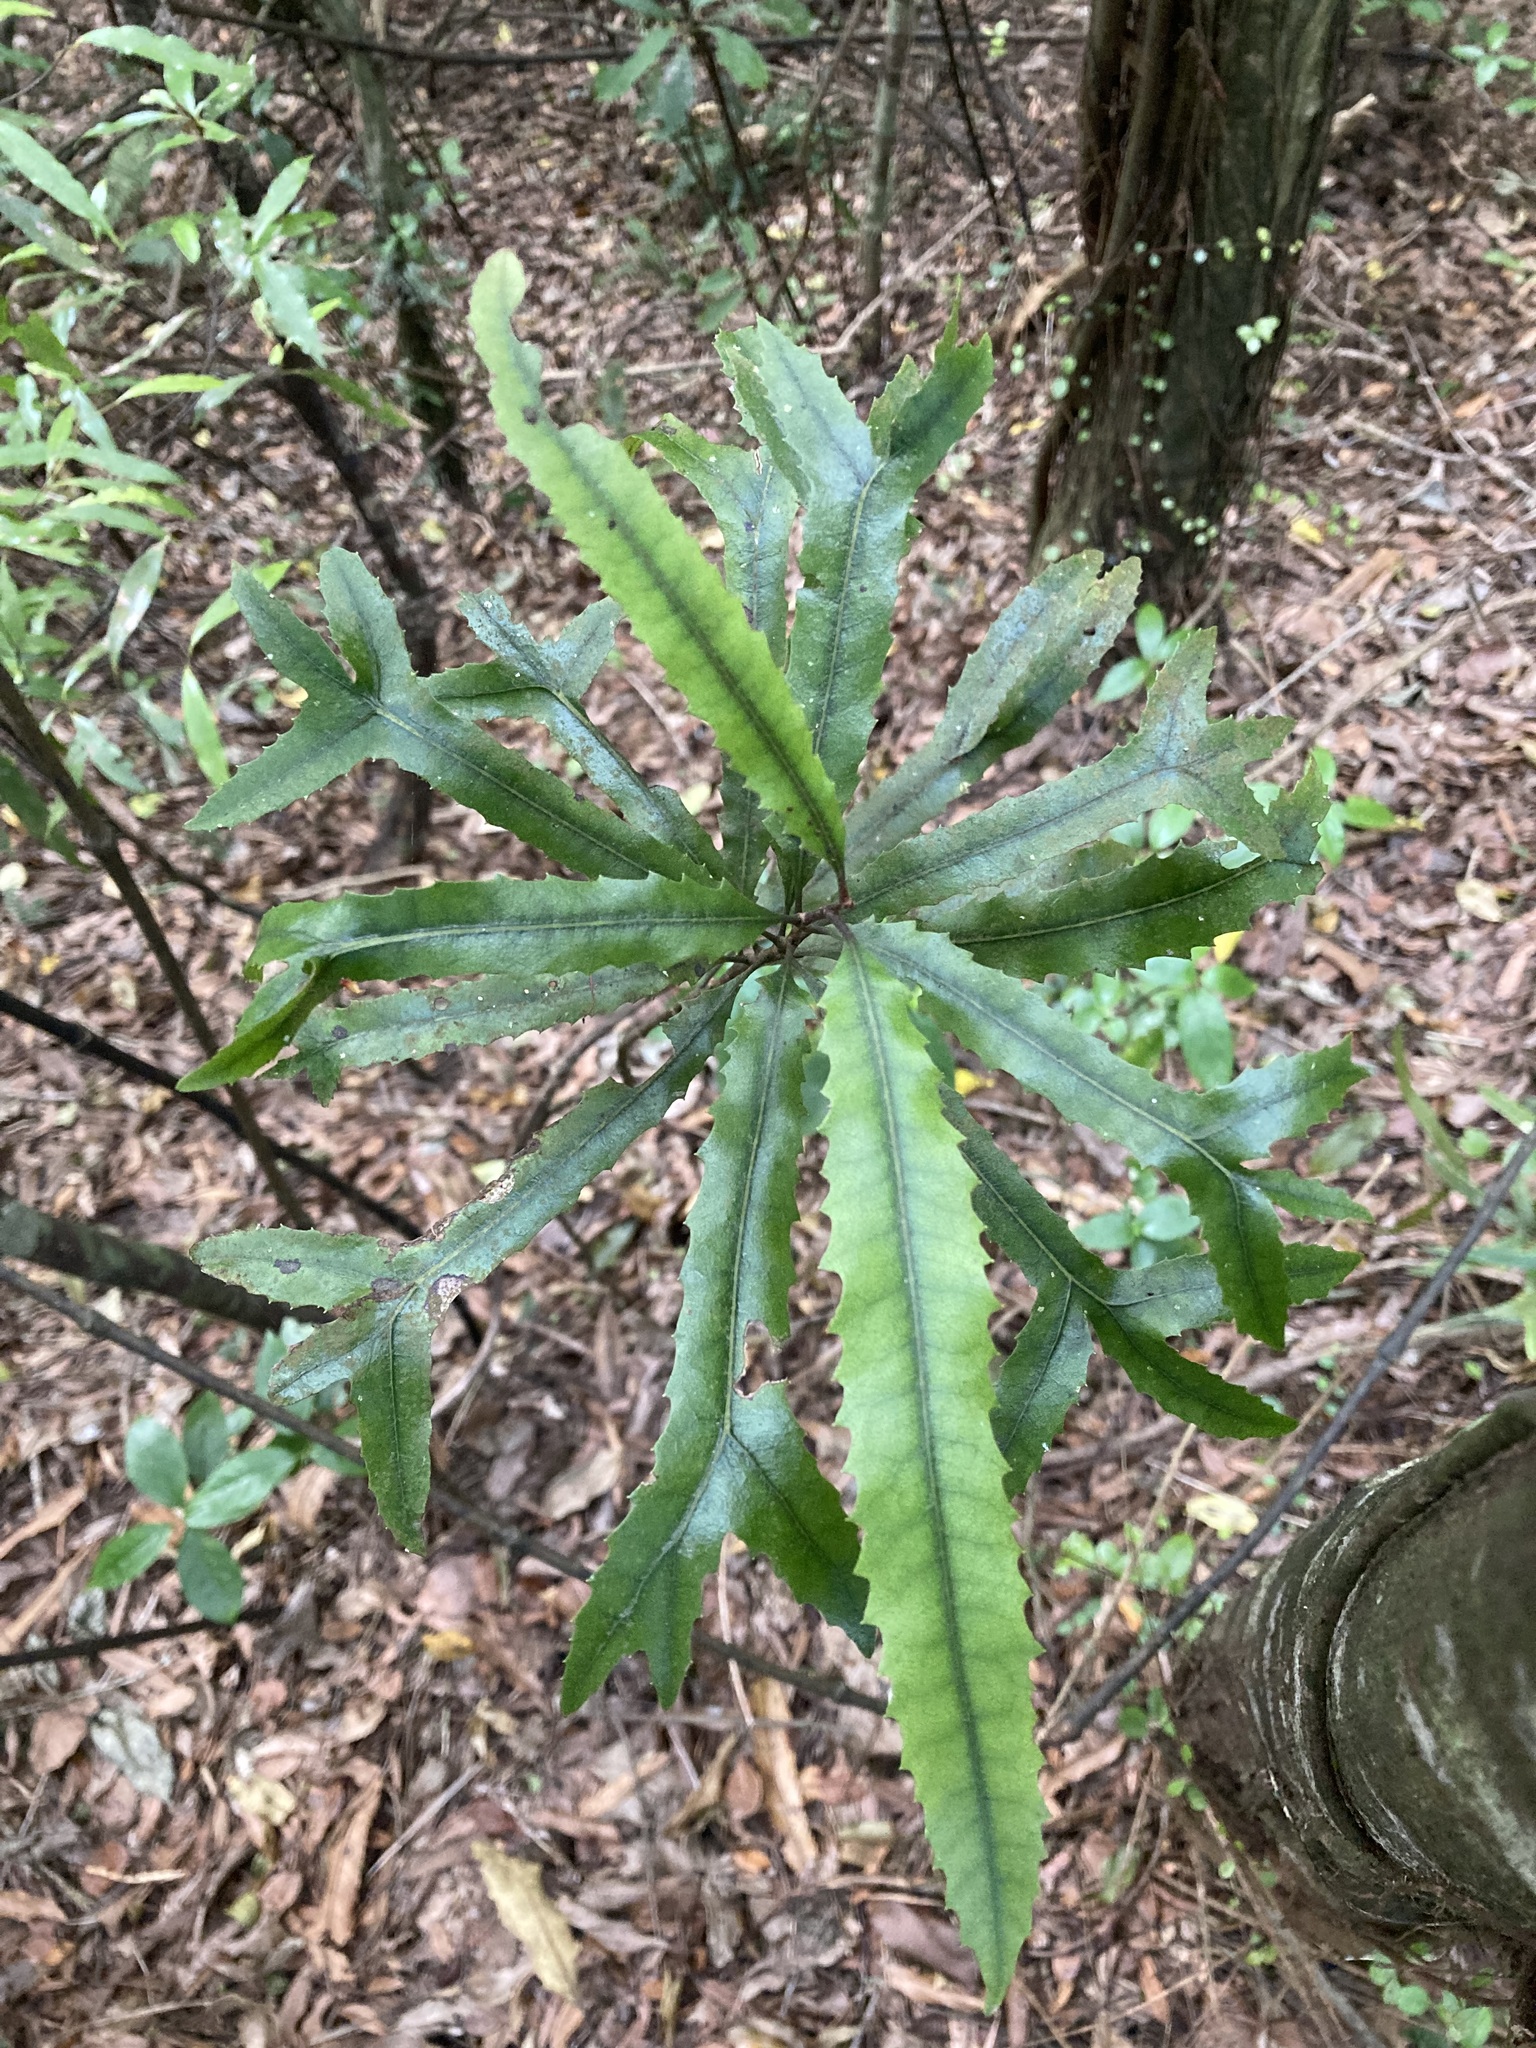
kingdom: Plantae
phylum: Tracheophyta
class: Magnoliopsida
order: Proteales
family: Proteaceae
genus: Knightia
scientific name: Knightia excelsa
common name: New zealand-honeysuckle
